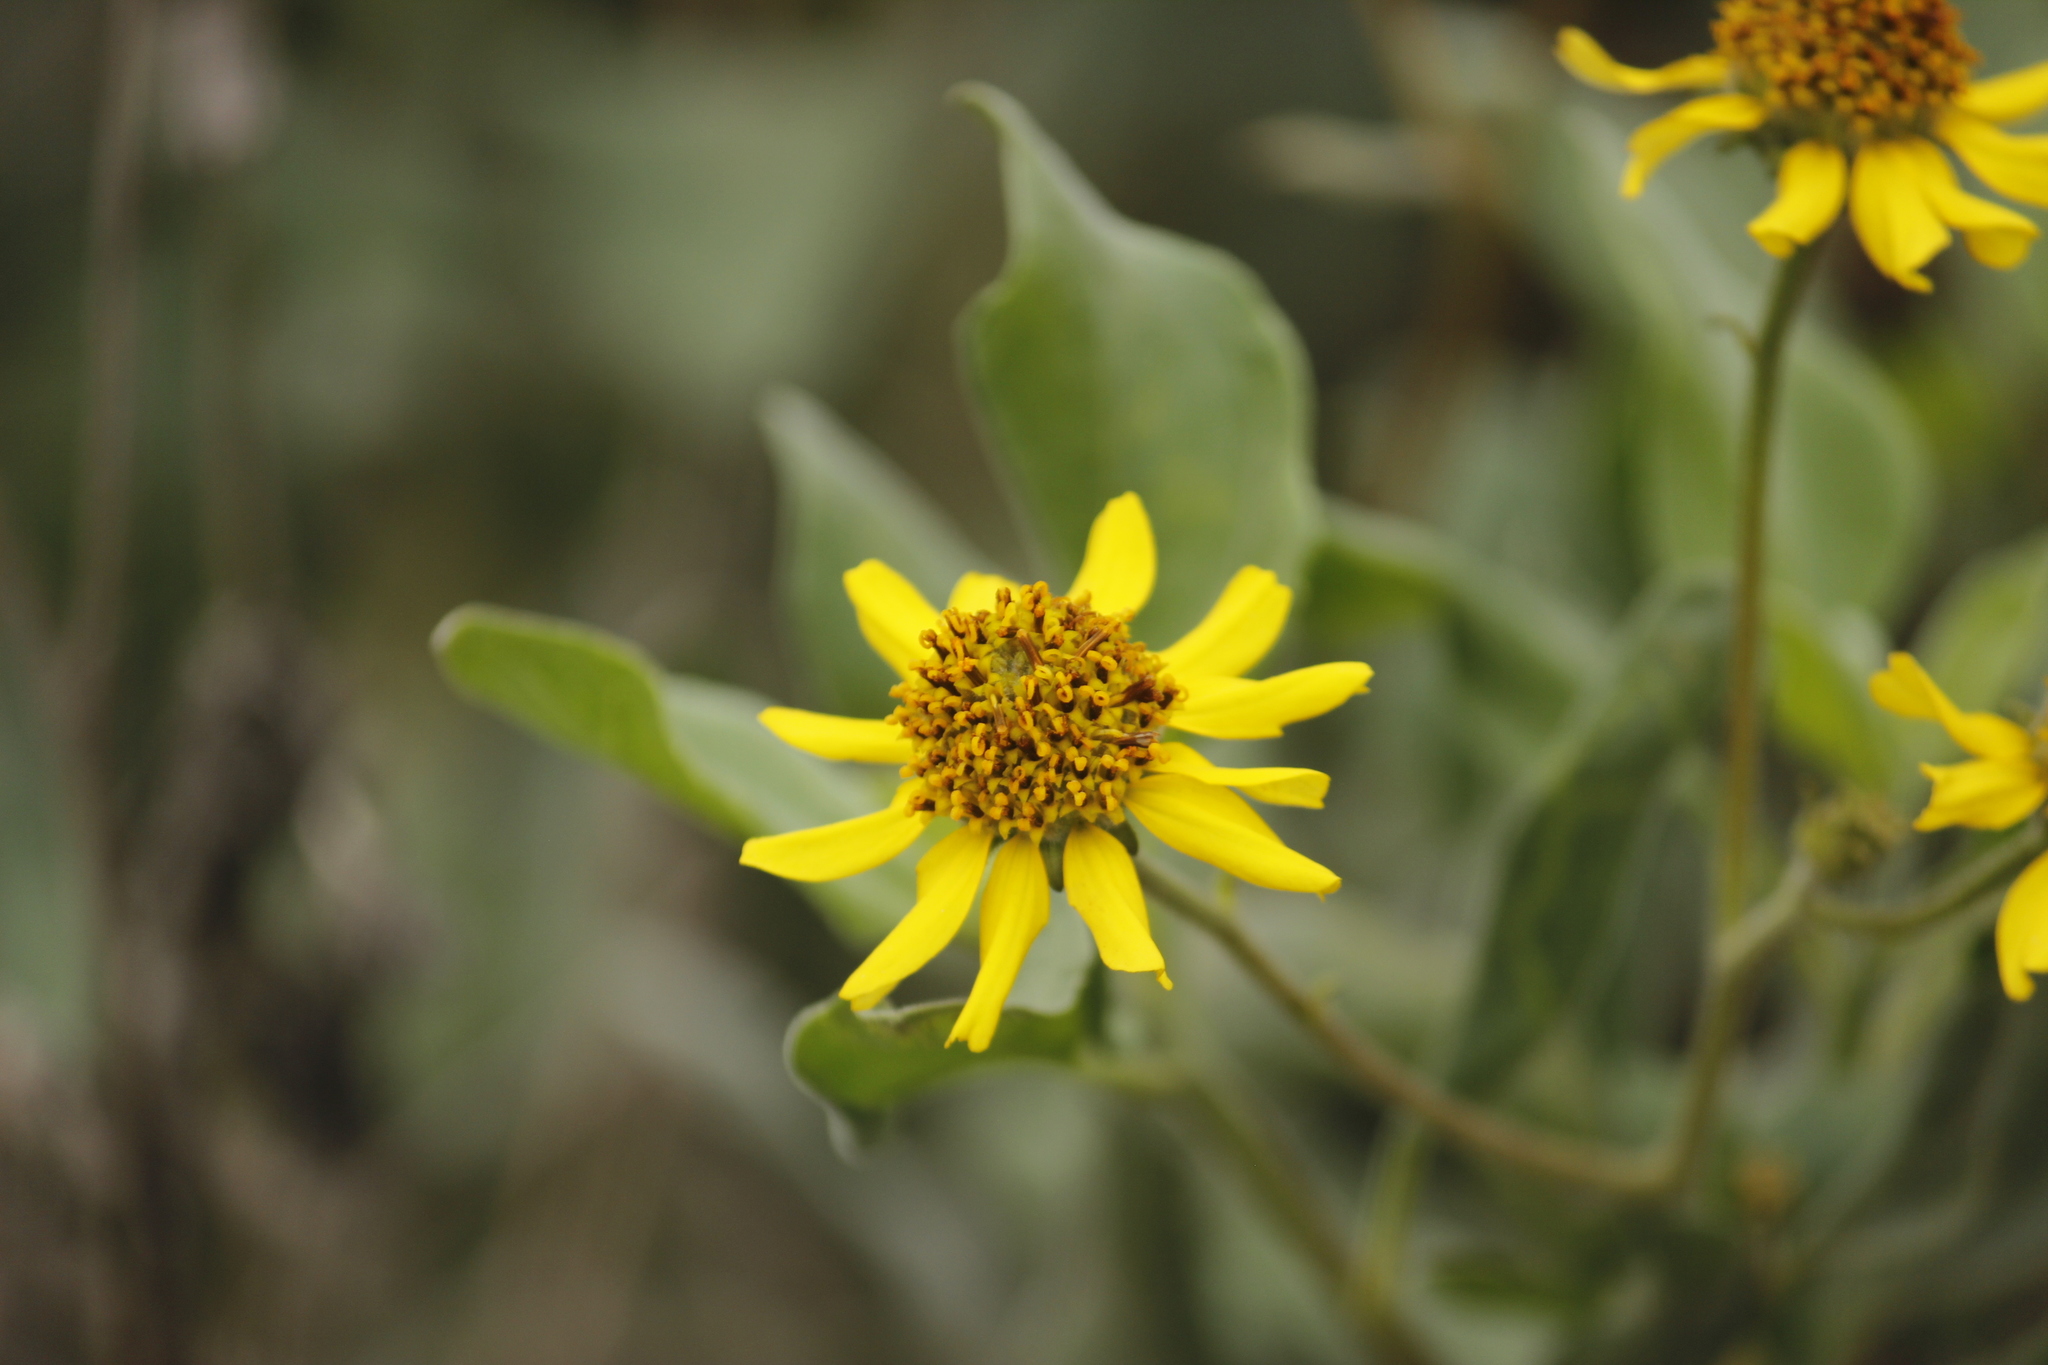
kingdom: Plantae
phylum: Tracheophyta
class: Magnoliopsida
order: Asterales
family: Asteraceae
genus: Encelia
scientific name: Encelia canescens
